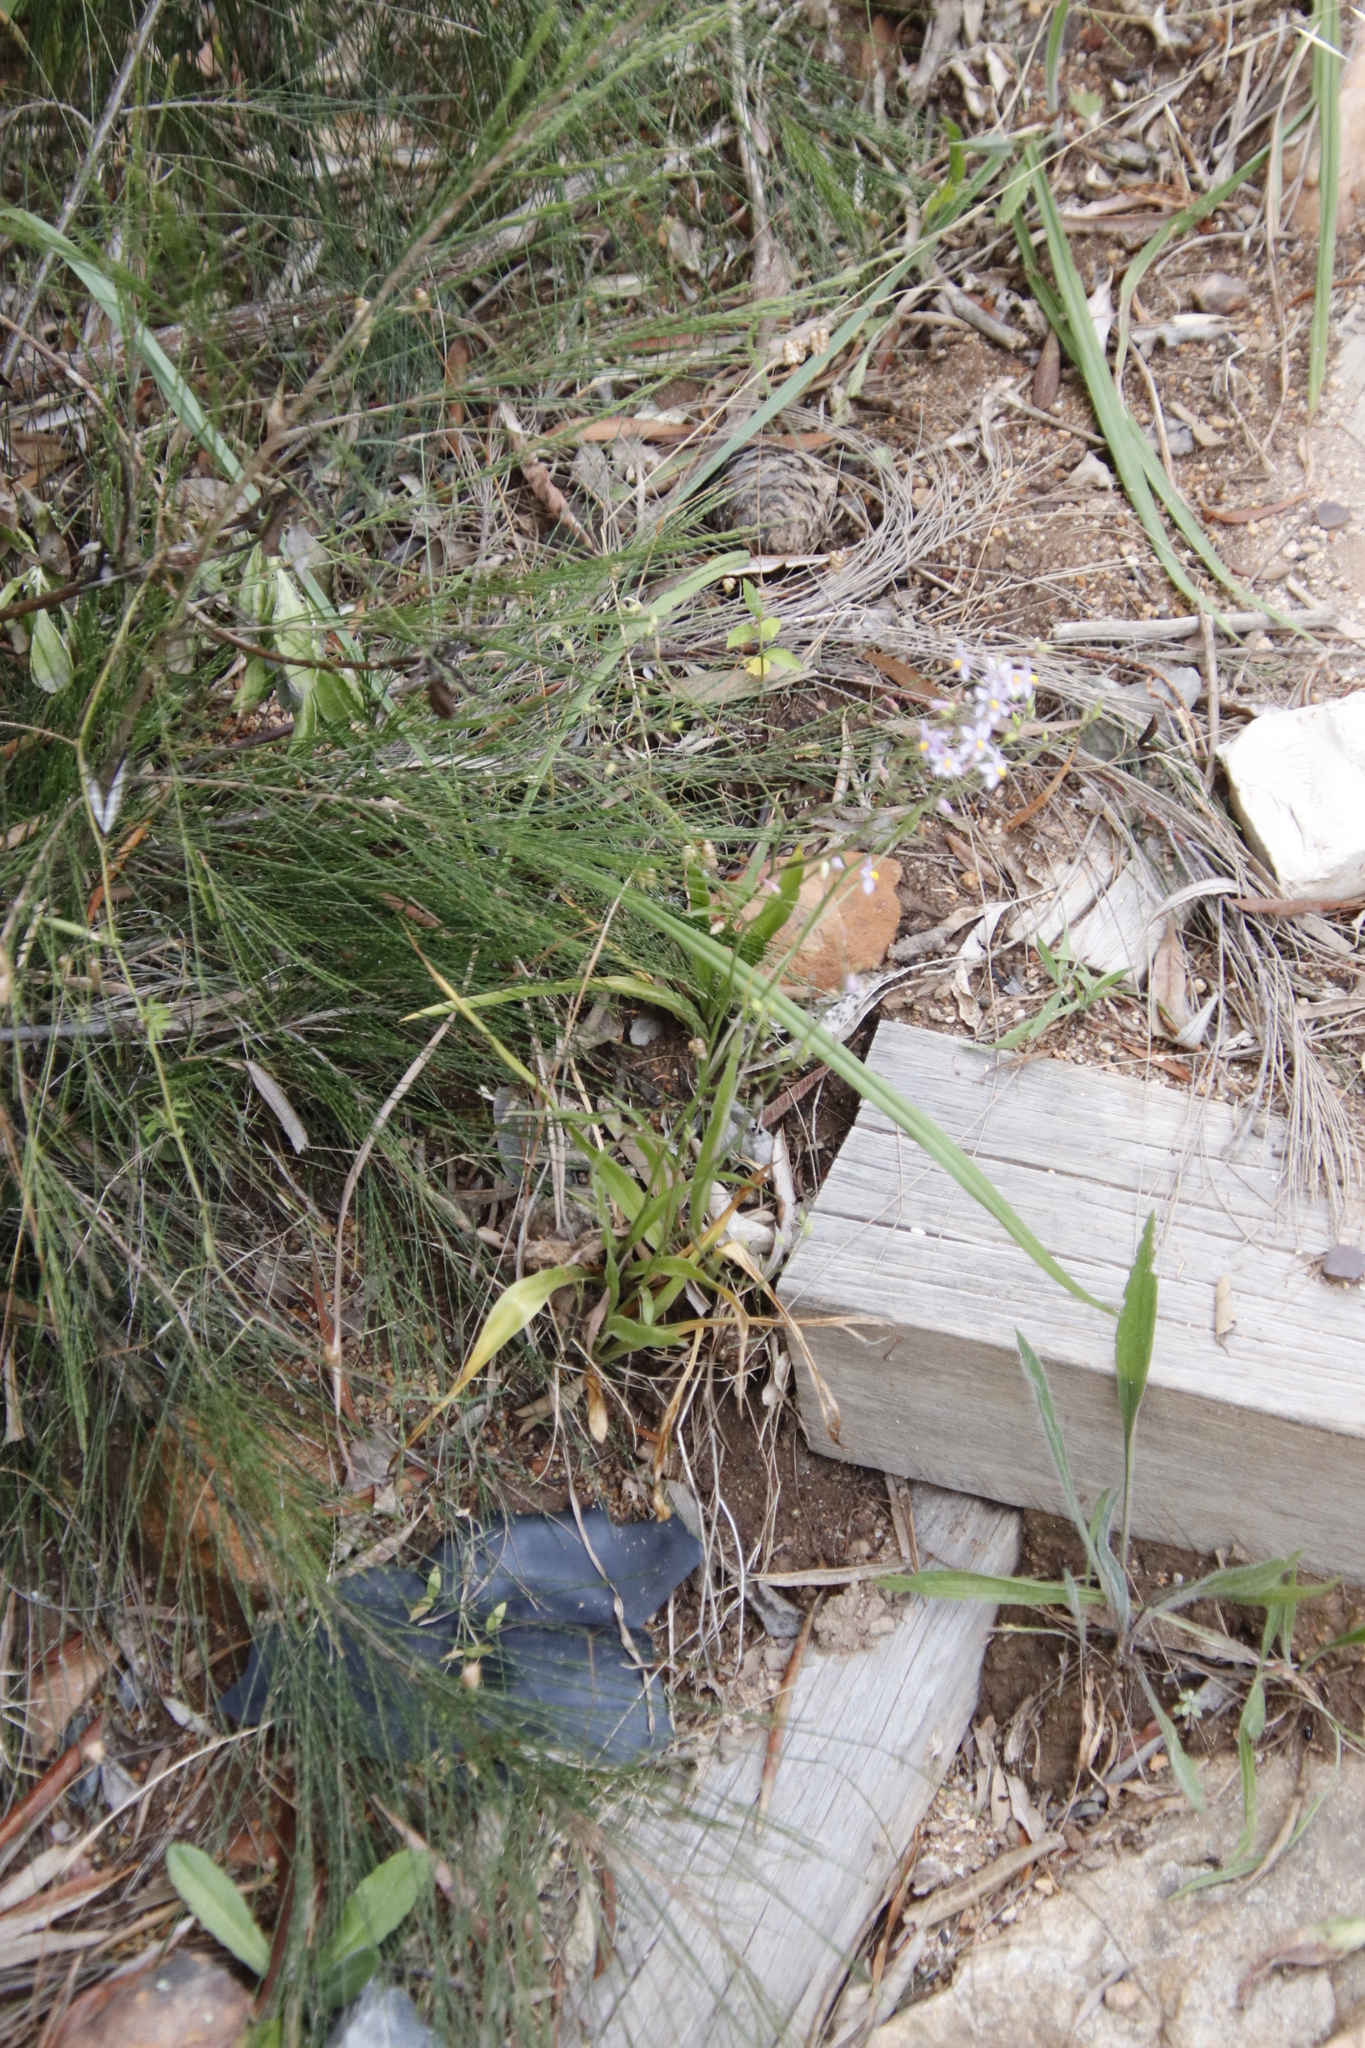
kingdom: Plantae
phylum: Tracheophyta
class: Liliopsida
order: Asparagales
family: Tecophilaeaceae
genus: Cyanella
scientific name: Cyanella hyacinthoides
